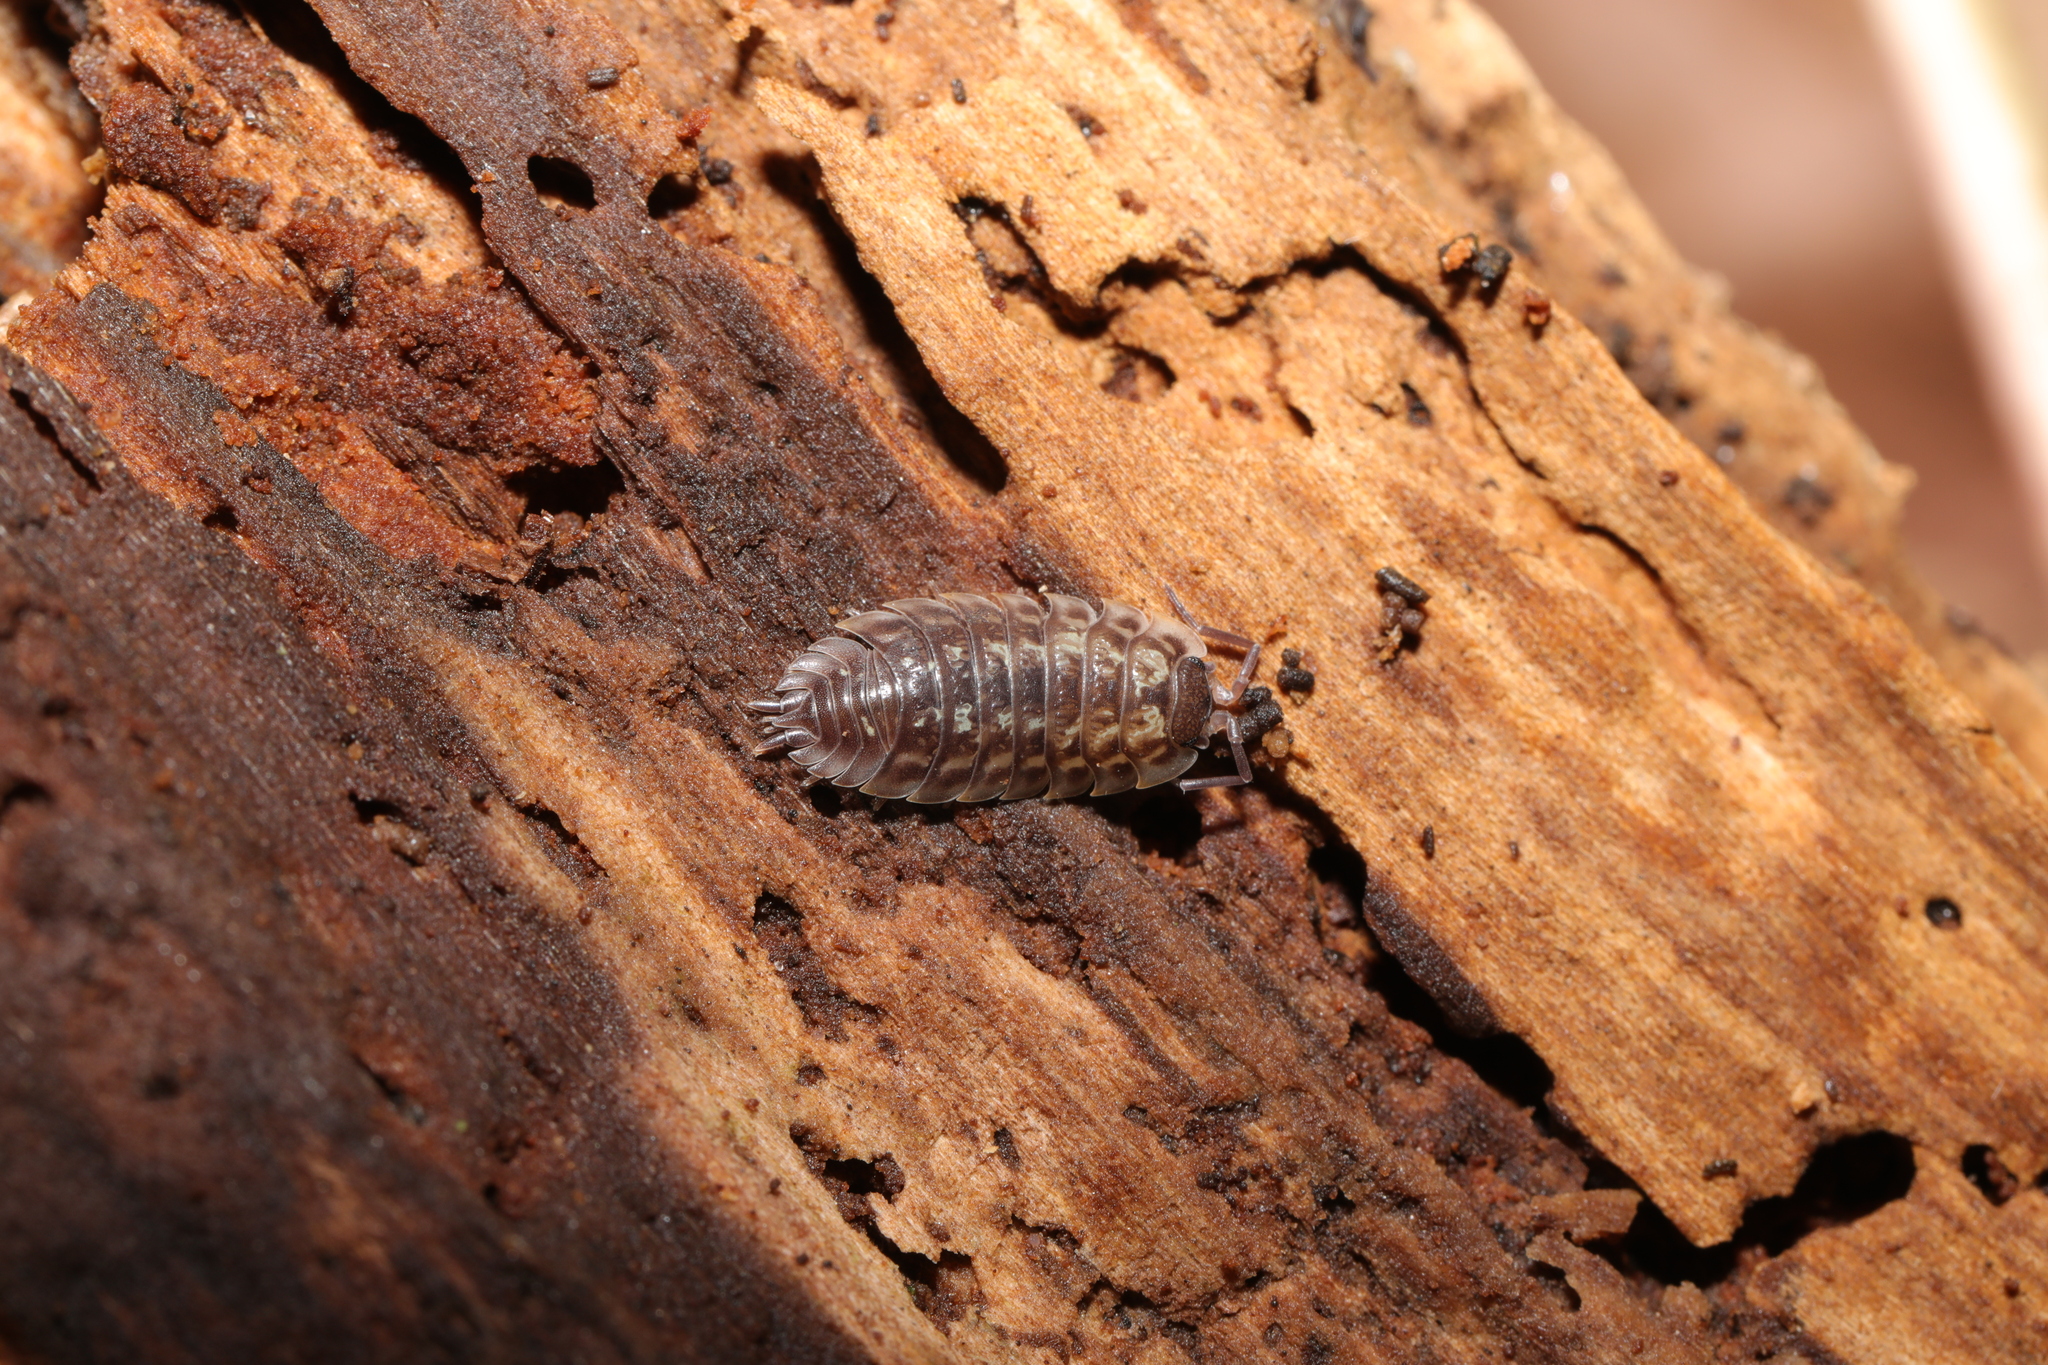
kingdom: Animalia
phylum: Arthropoda
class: Malacostraca
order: Isopoda
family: Oniscidae
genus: Oniscus
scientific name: Oniscus asellus
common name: Common shiny woodlouse
